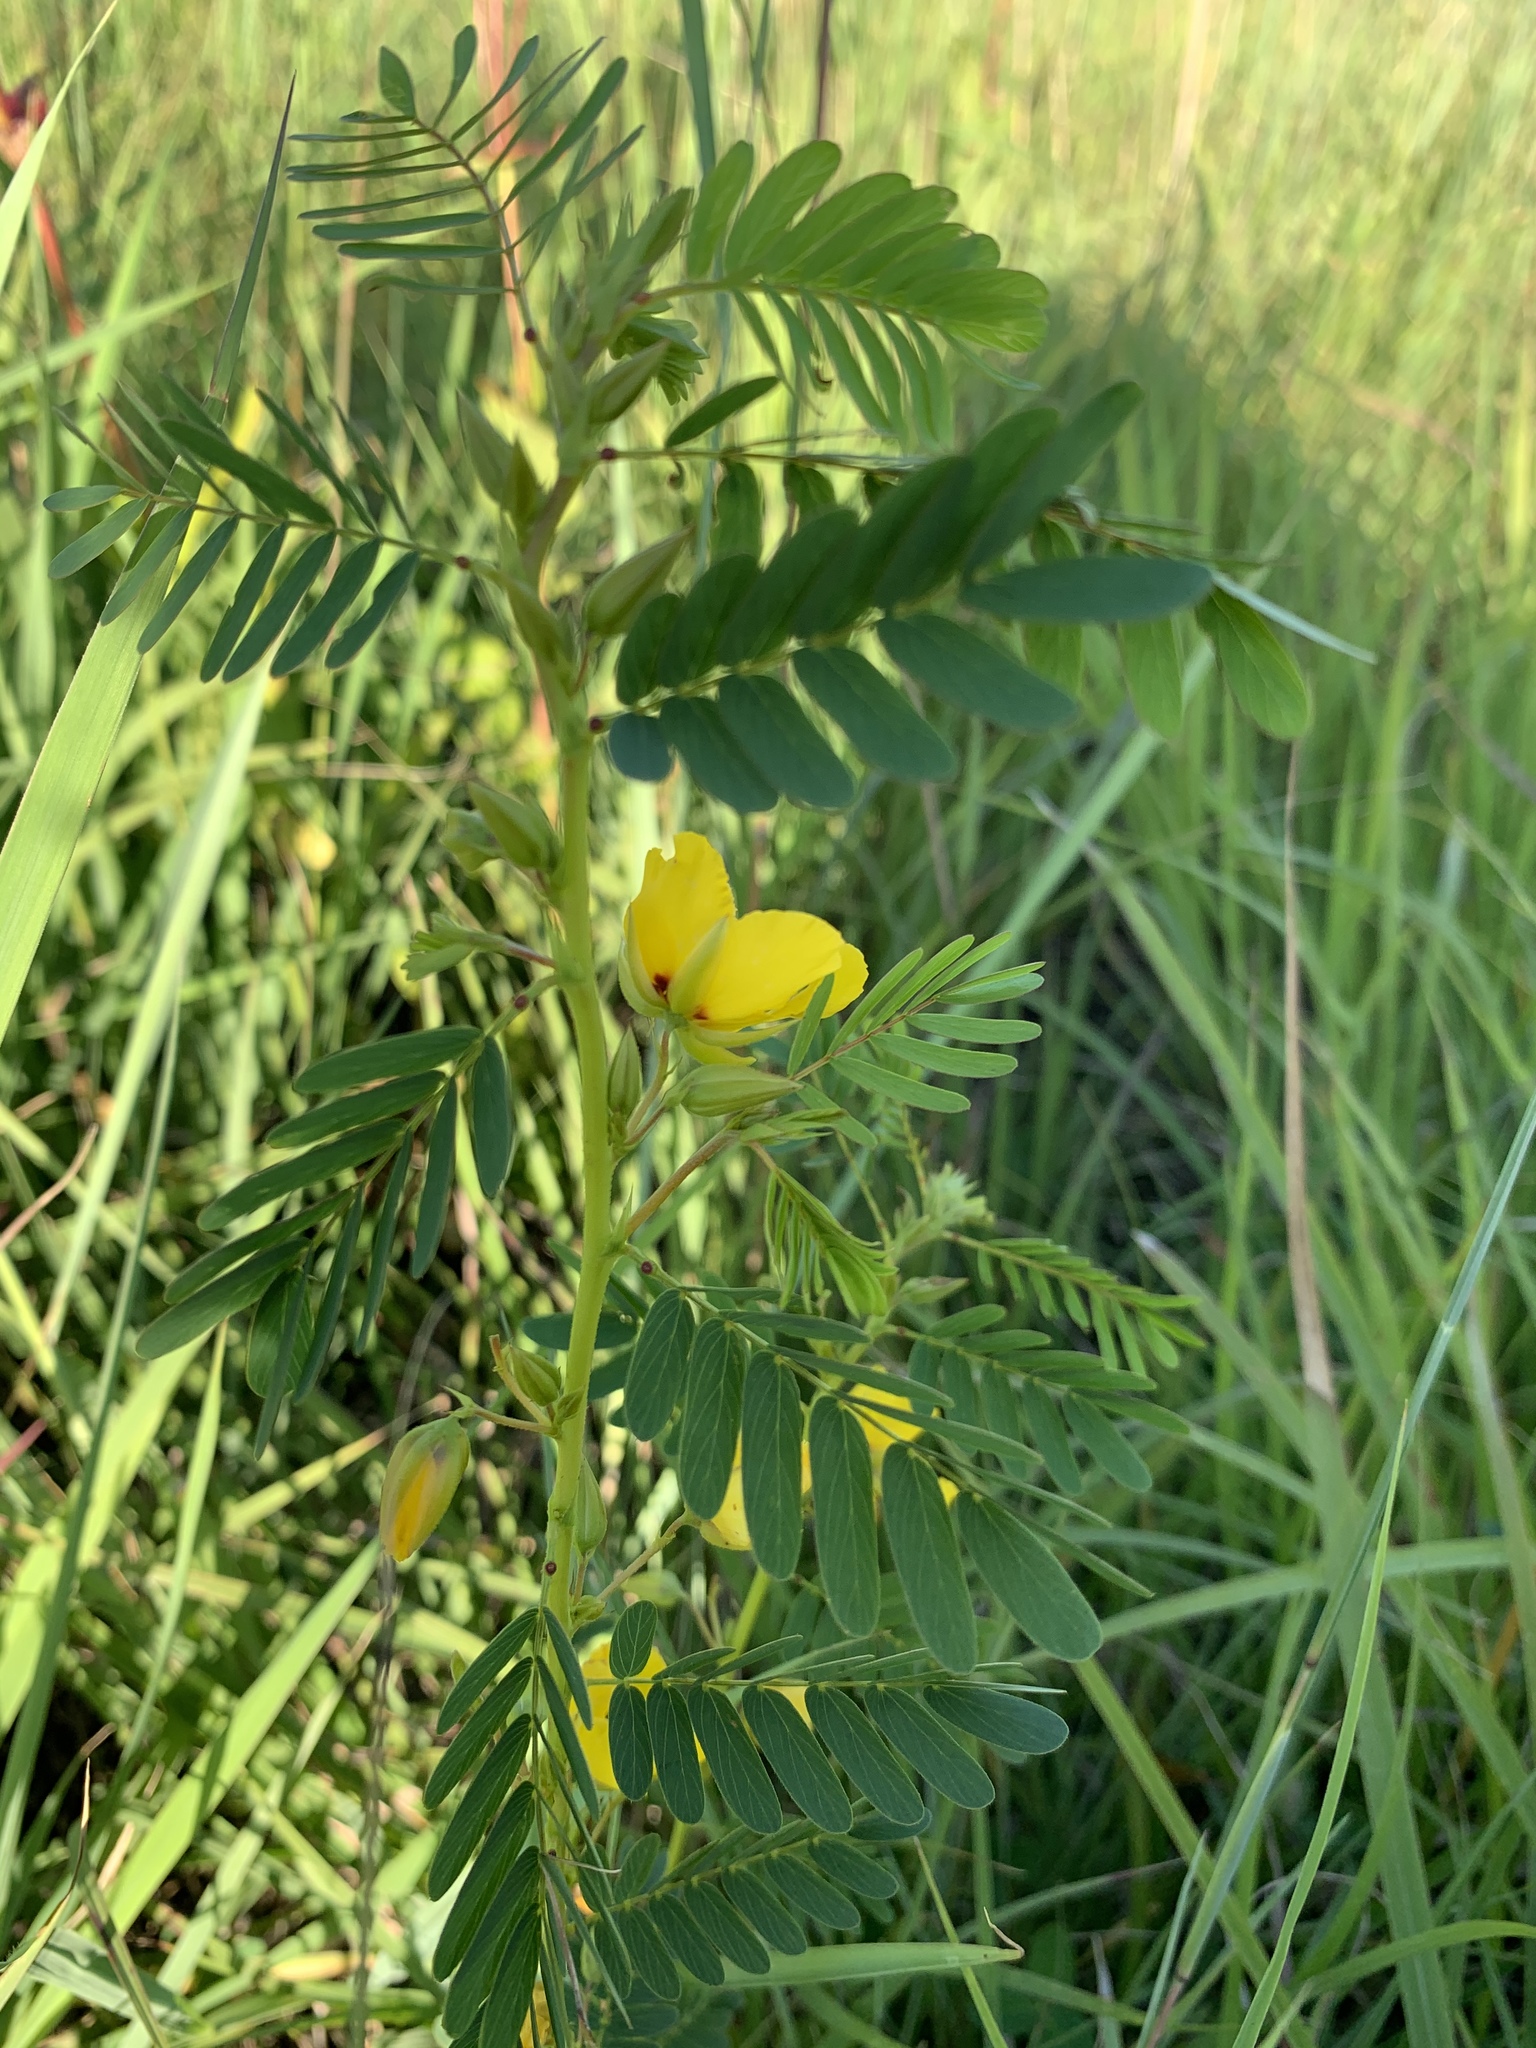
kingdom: Plantae
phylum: Tracheophyta
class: Magnoliopsida
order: Fabales
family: Fabaceae
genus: Chamaecrista
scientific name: Chamaecrista fasciculata
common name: Golden cassia
